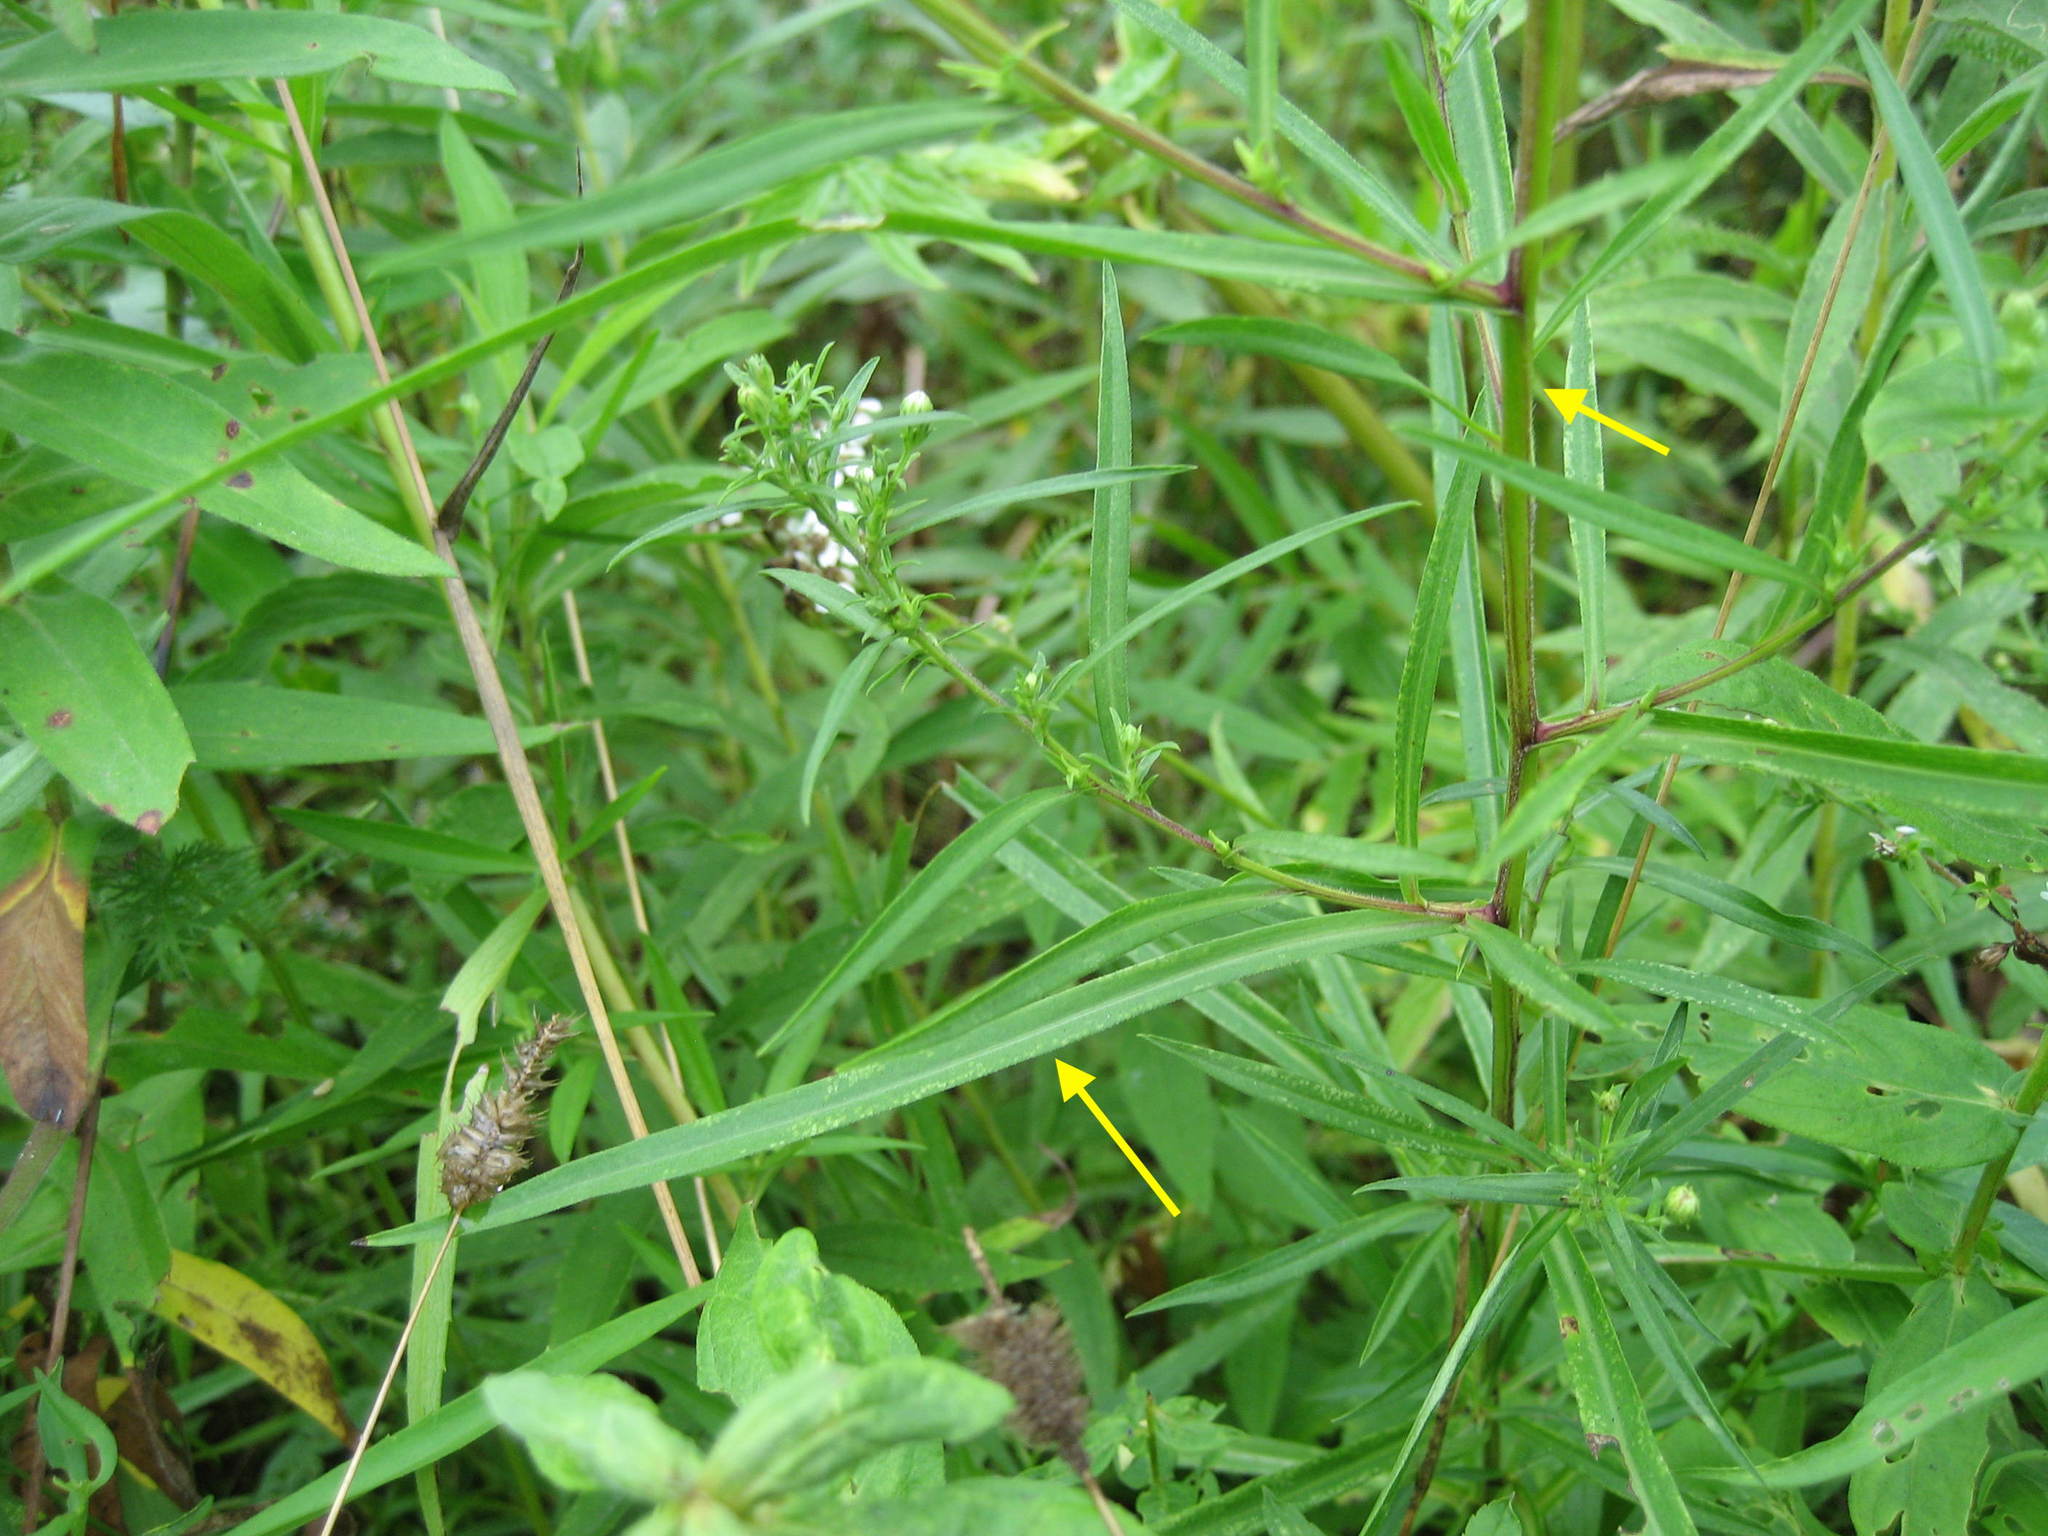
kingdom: Plantae
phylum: Tracheophyta
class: Magnoliopsida
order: Asterales
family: Asteraceae
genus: Symphyotrichum
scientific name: Symphyotrichum lanceolatum
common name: Panicled aster
